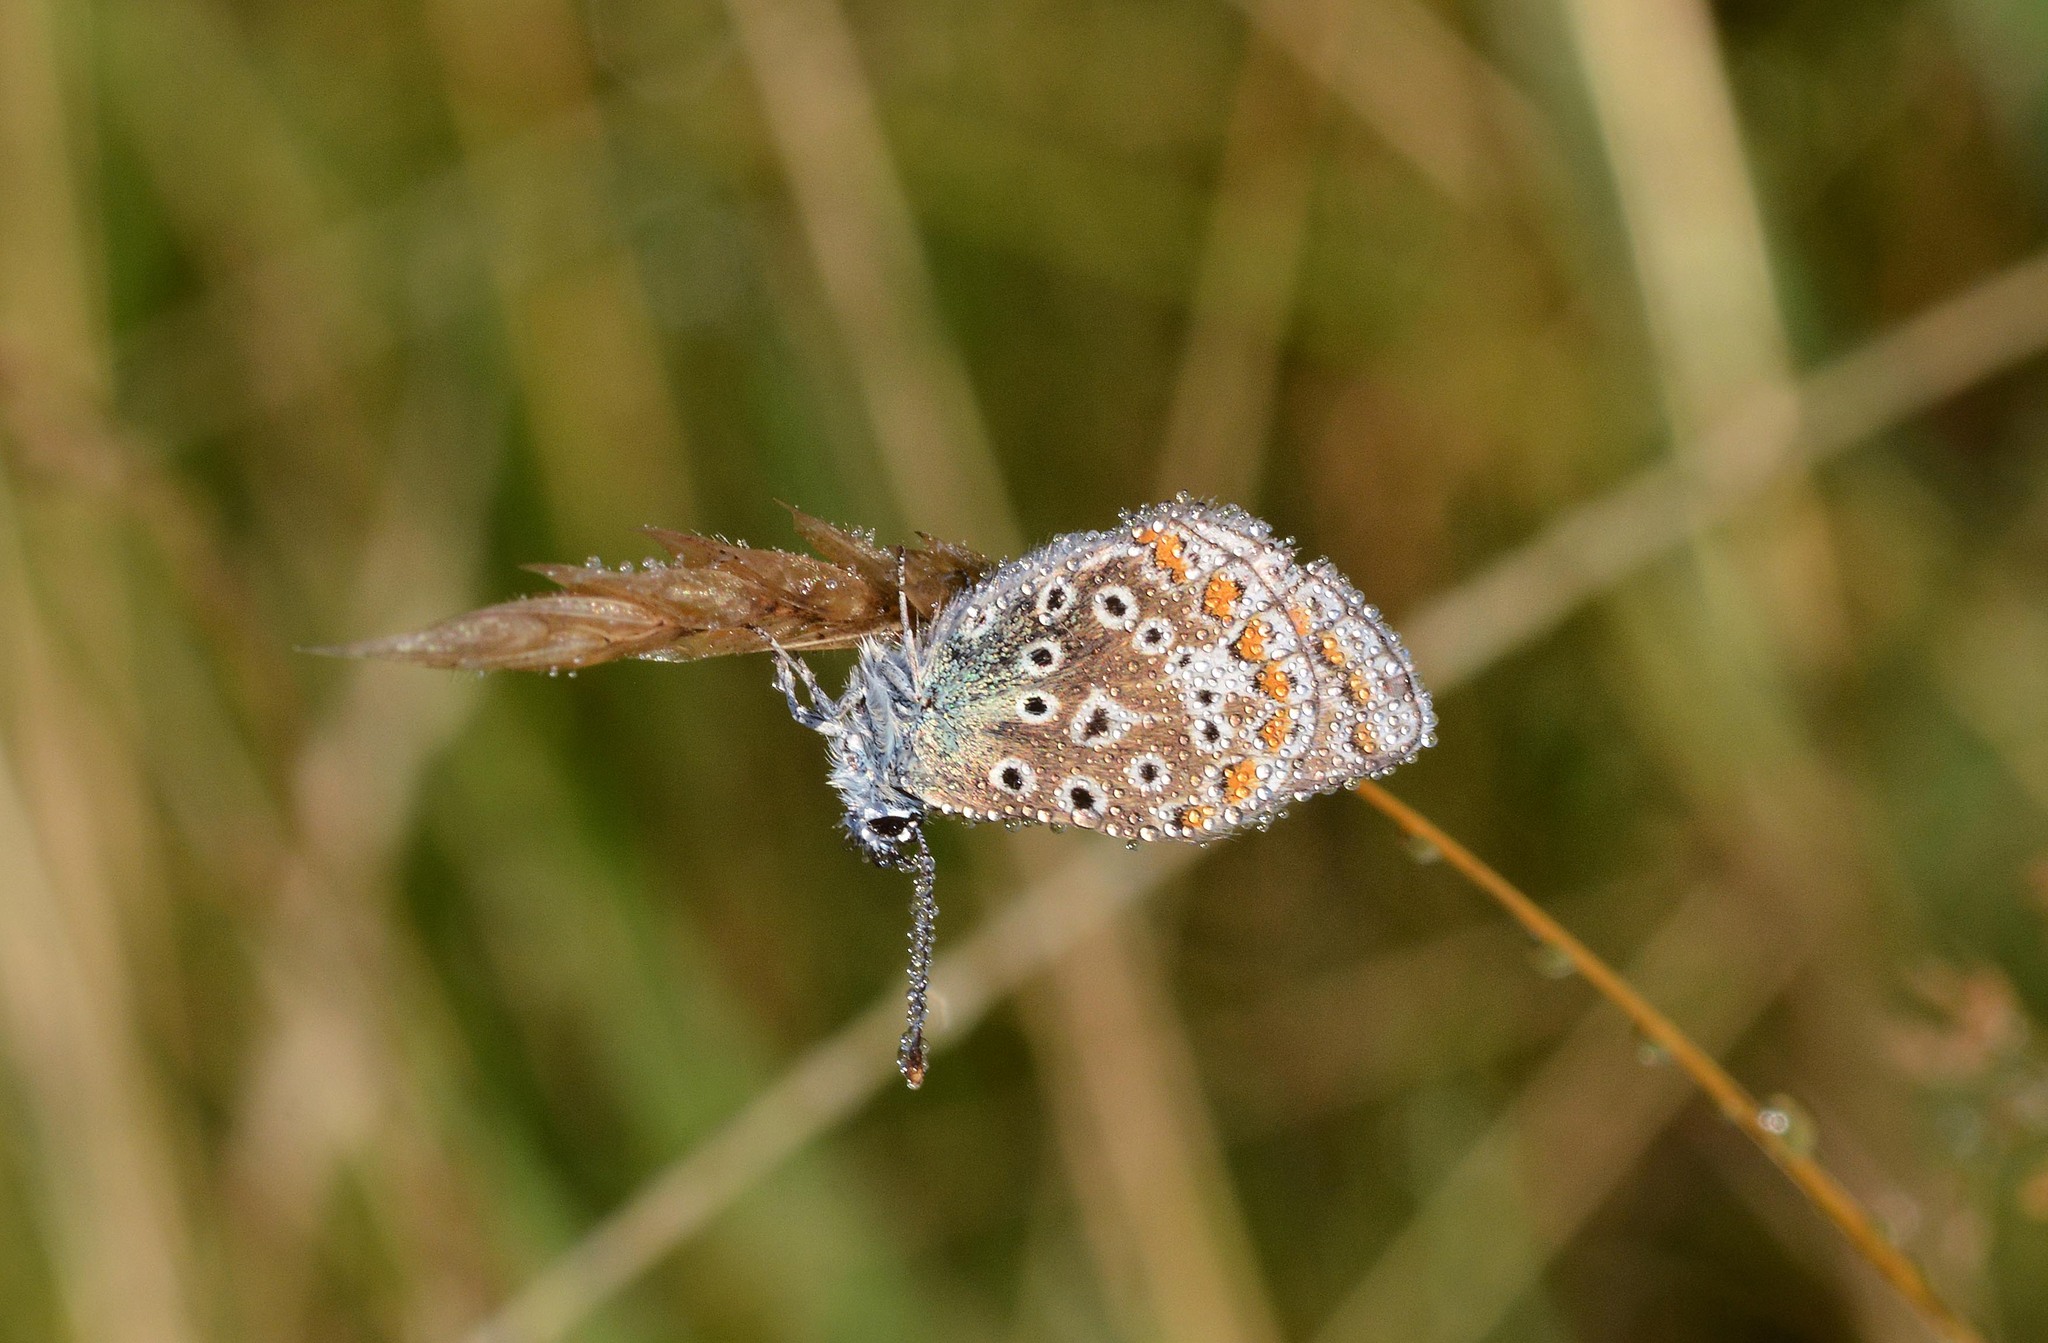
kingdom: Animalia
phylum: Arthropoda
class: Insecta
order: Lepidoptera
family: Lycaenidae
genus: Polyommatus
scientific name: Polyommatus icarus
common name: Common blue
